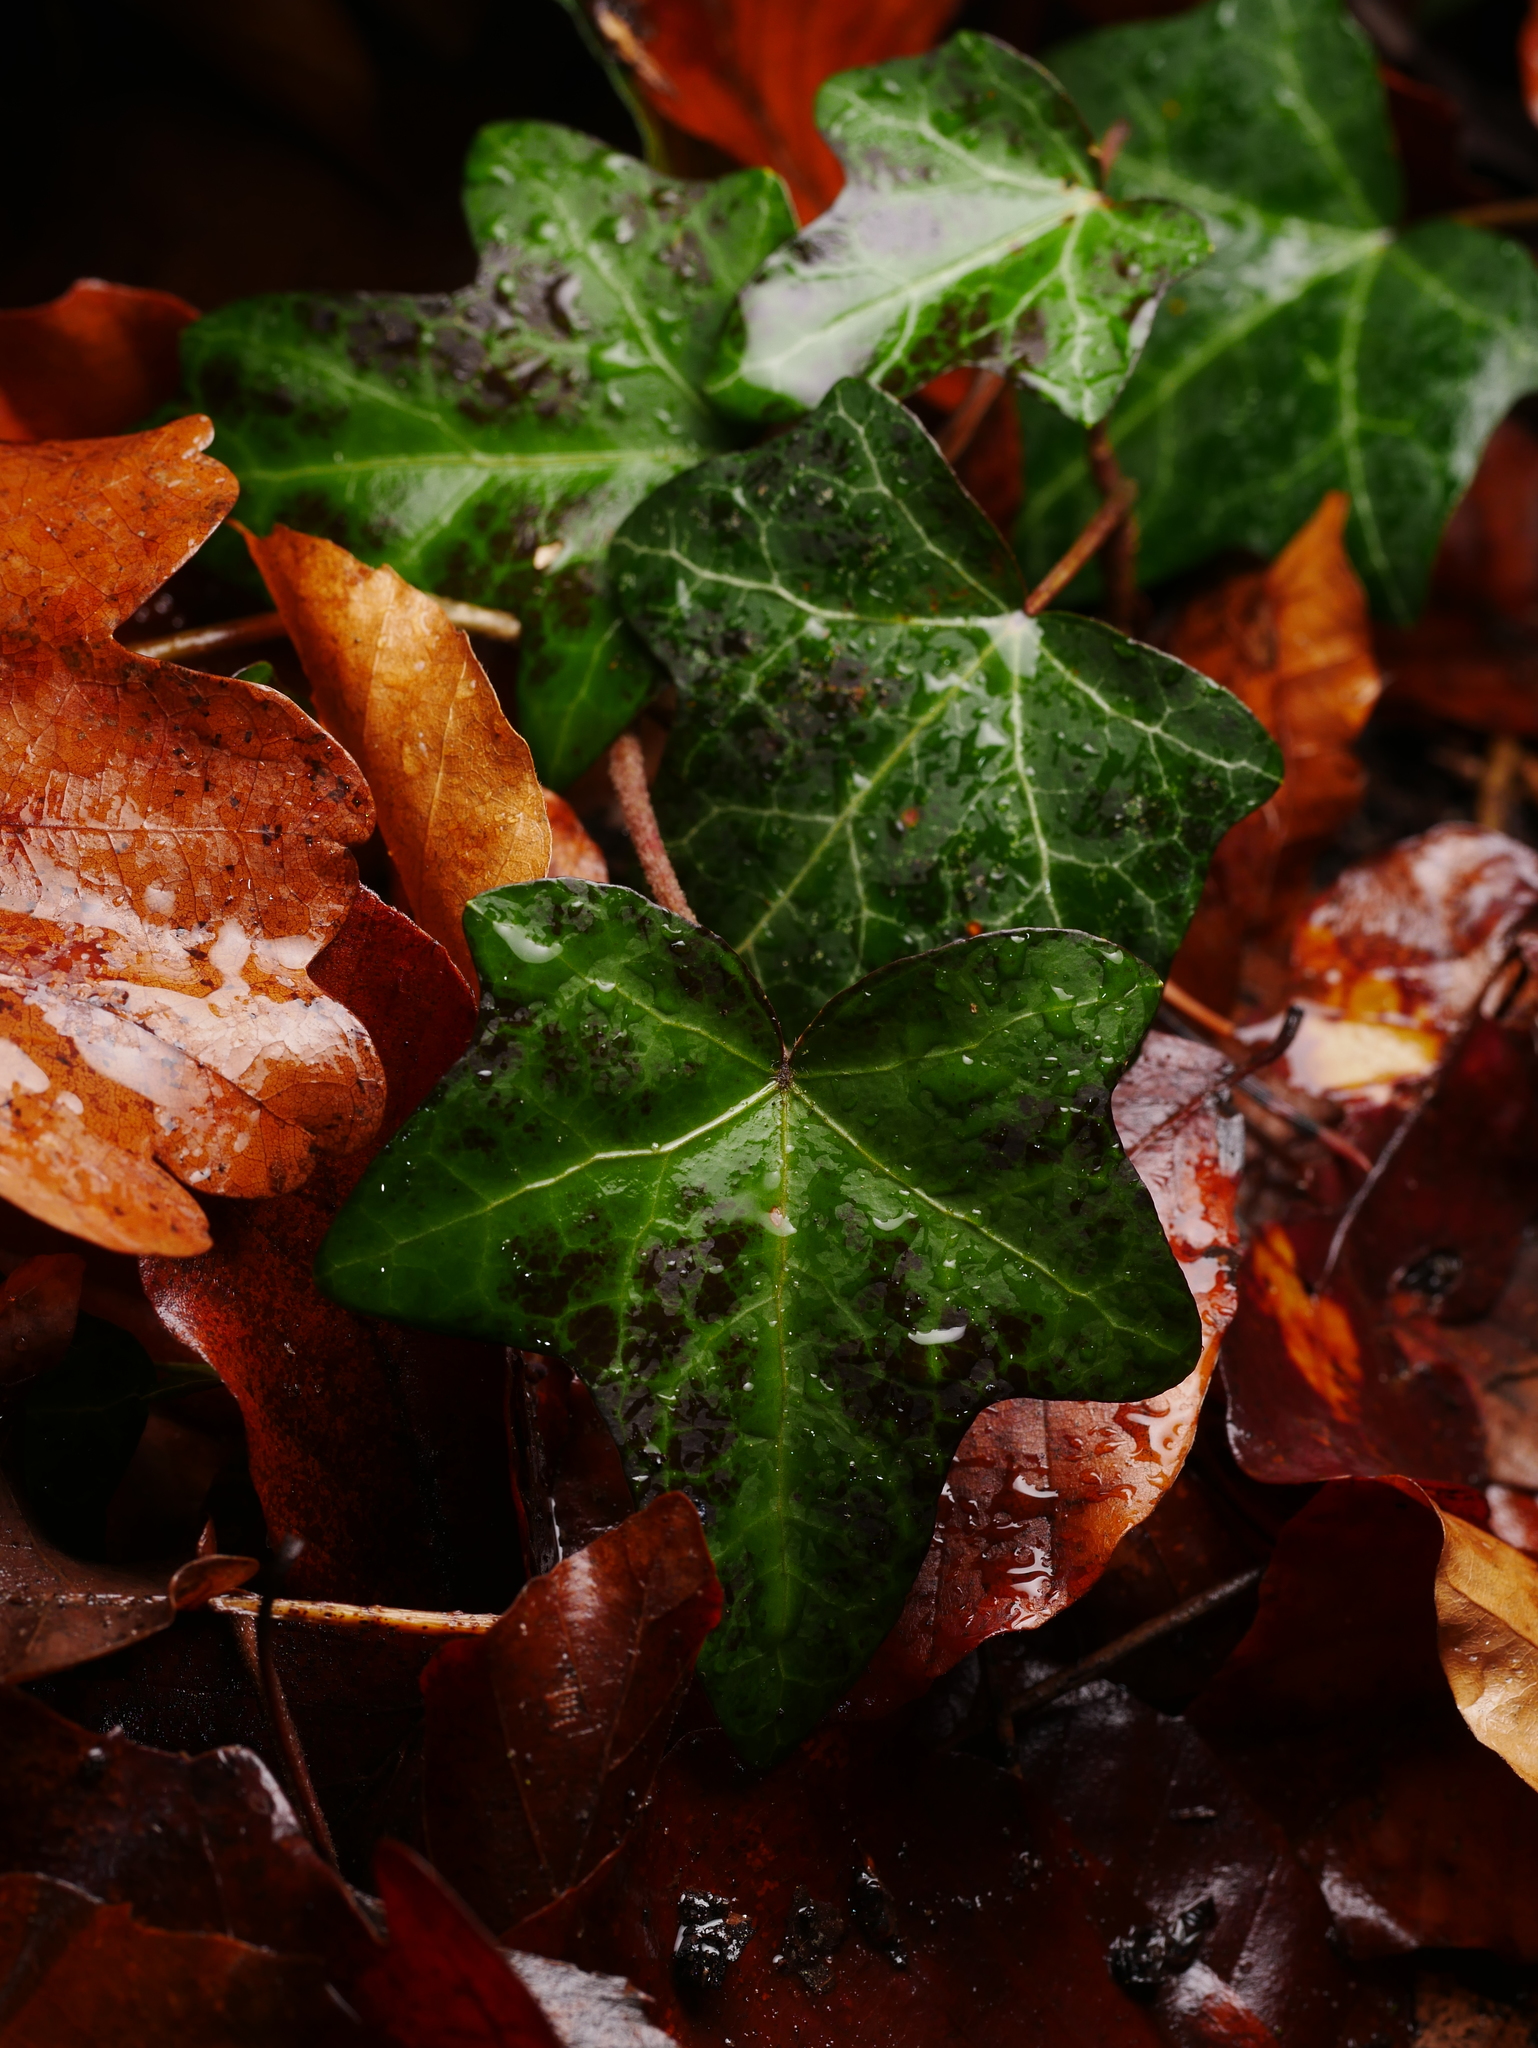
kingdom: Plantae
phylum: Tracheophyta
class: Magnoliopsida
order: Apiales
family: Araliaceae
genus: Hedera
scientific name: Hedera helix
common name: Ivy
